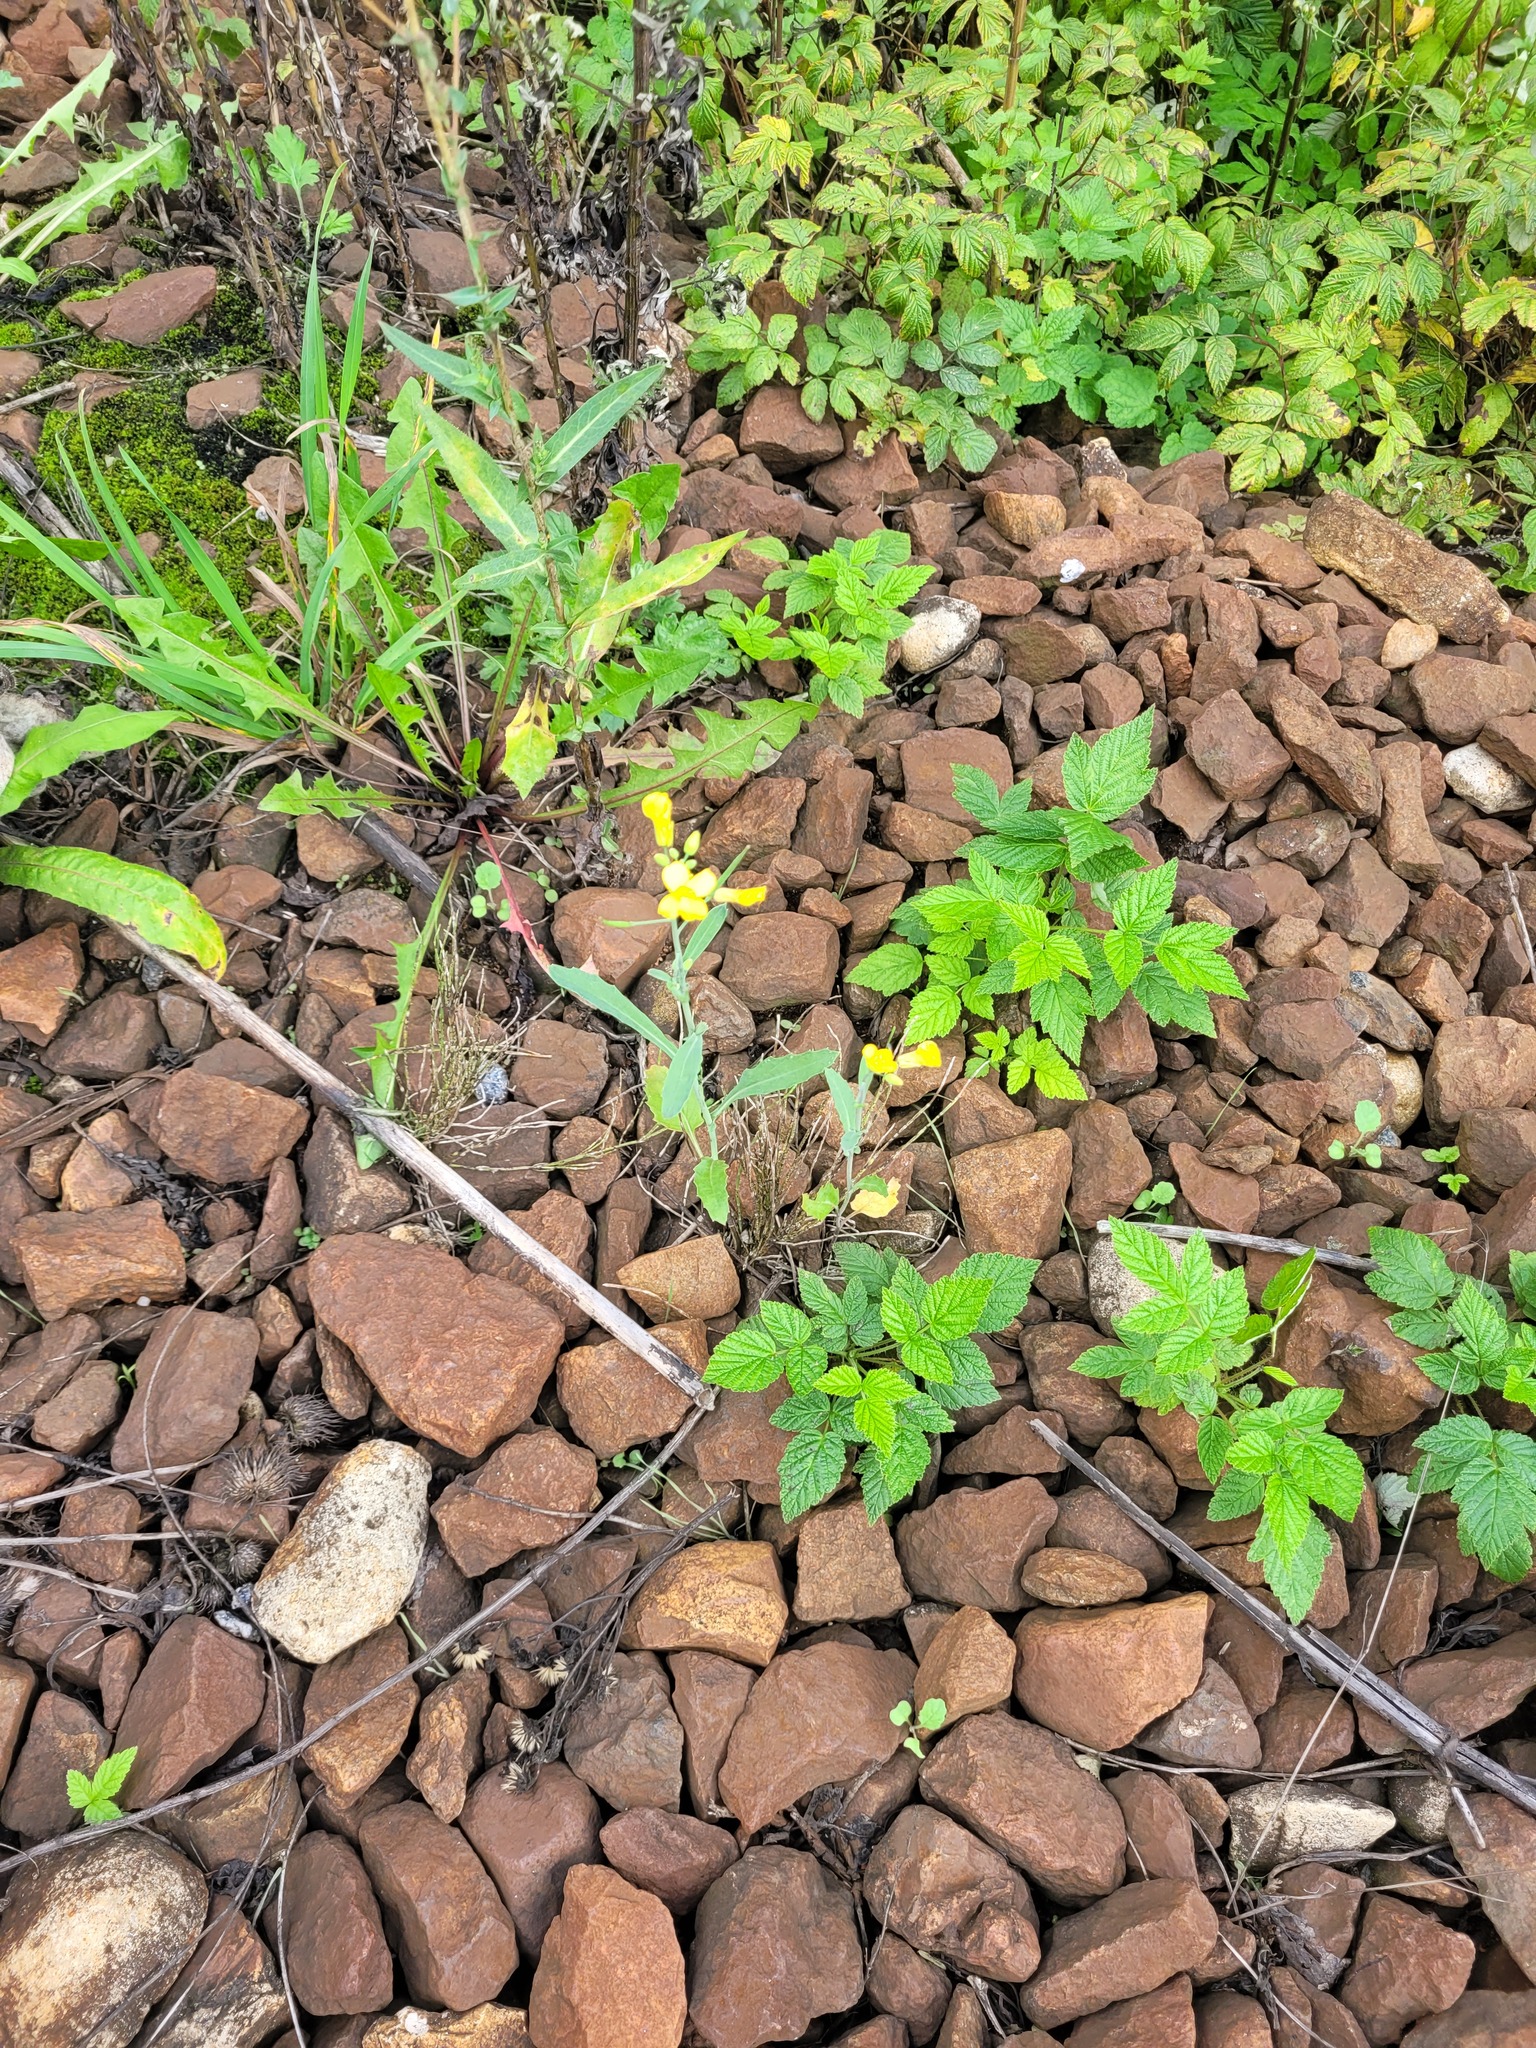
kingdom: Plantae
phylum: Tracheophyta
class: Magnoliopsida
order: Brassicales
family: Brassicaceae
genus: Brassica
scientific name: Brassica napus
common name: Rape
